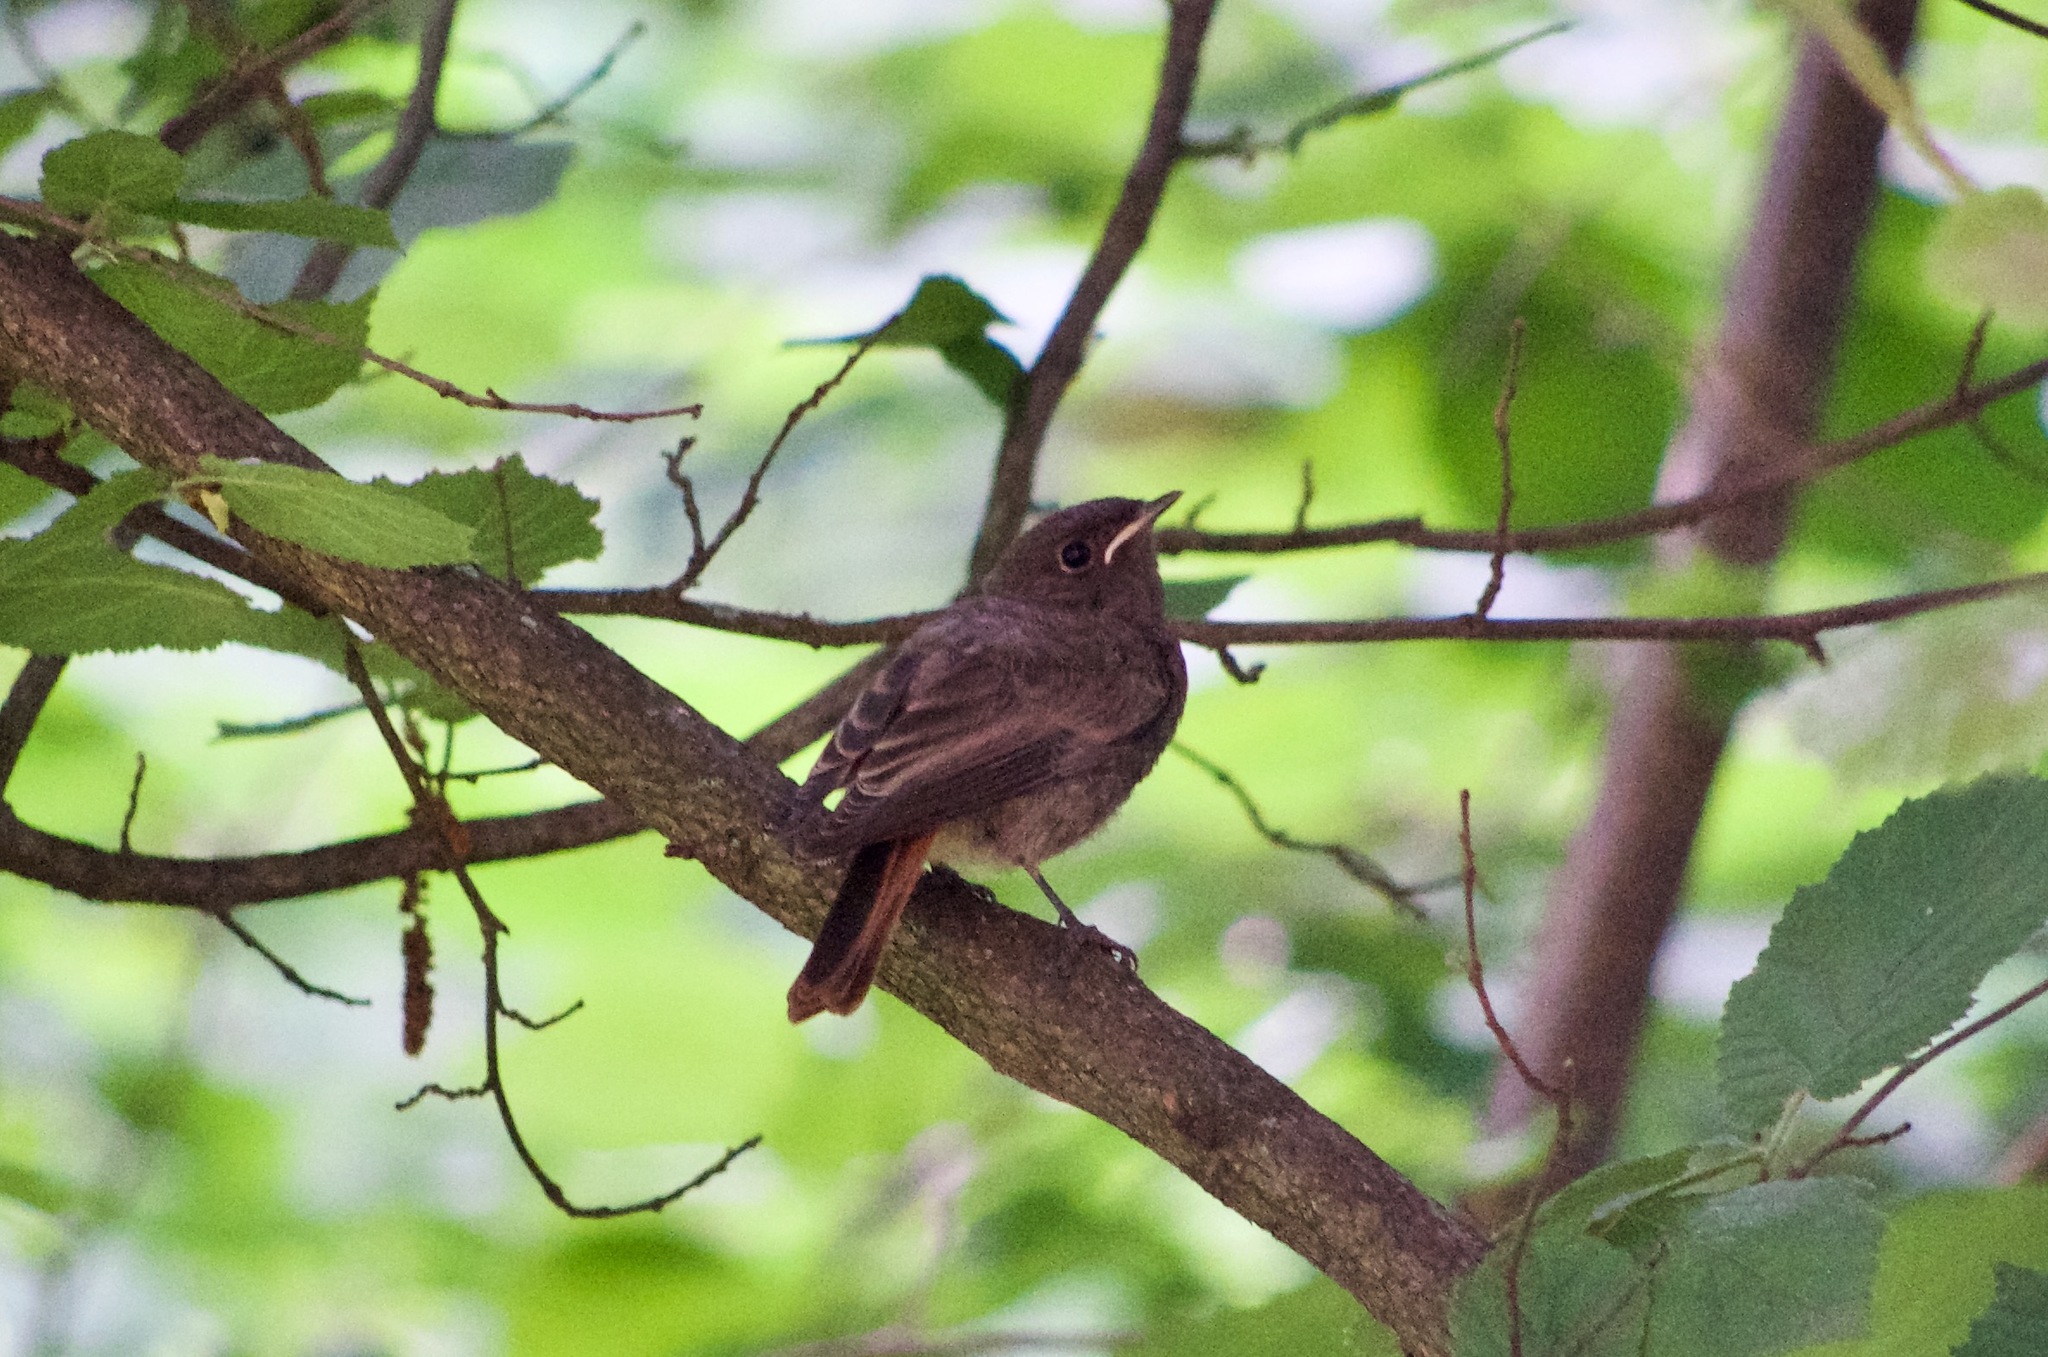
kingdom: Animalia
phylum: Chordata
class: Aves
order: Passeriformes
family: Muscicapidae
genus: Phoenicurus
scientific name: Phoenicurus ochruros
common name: Black redstart
